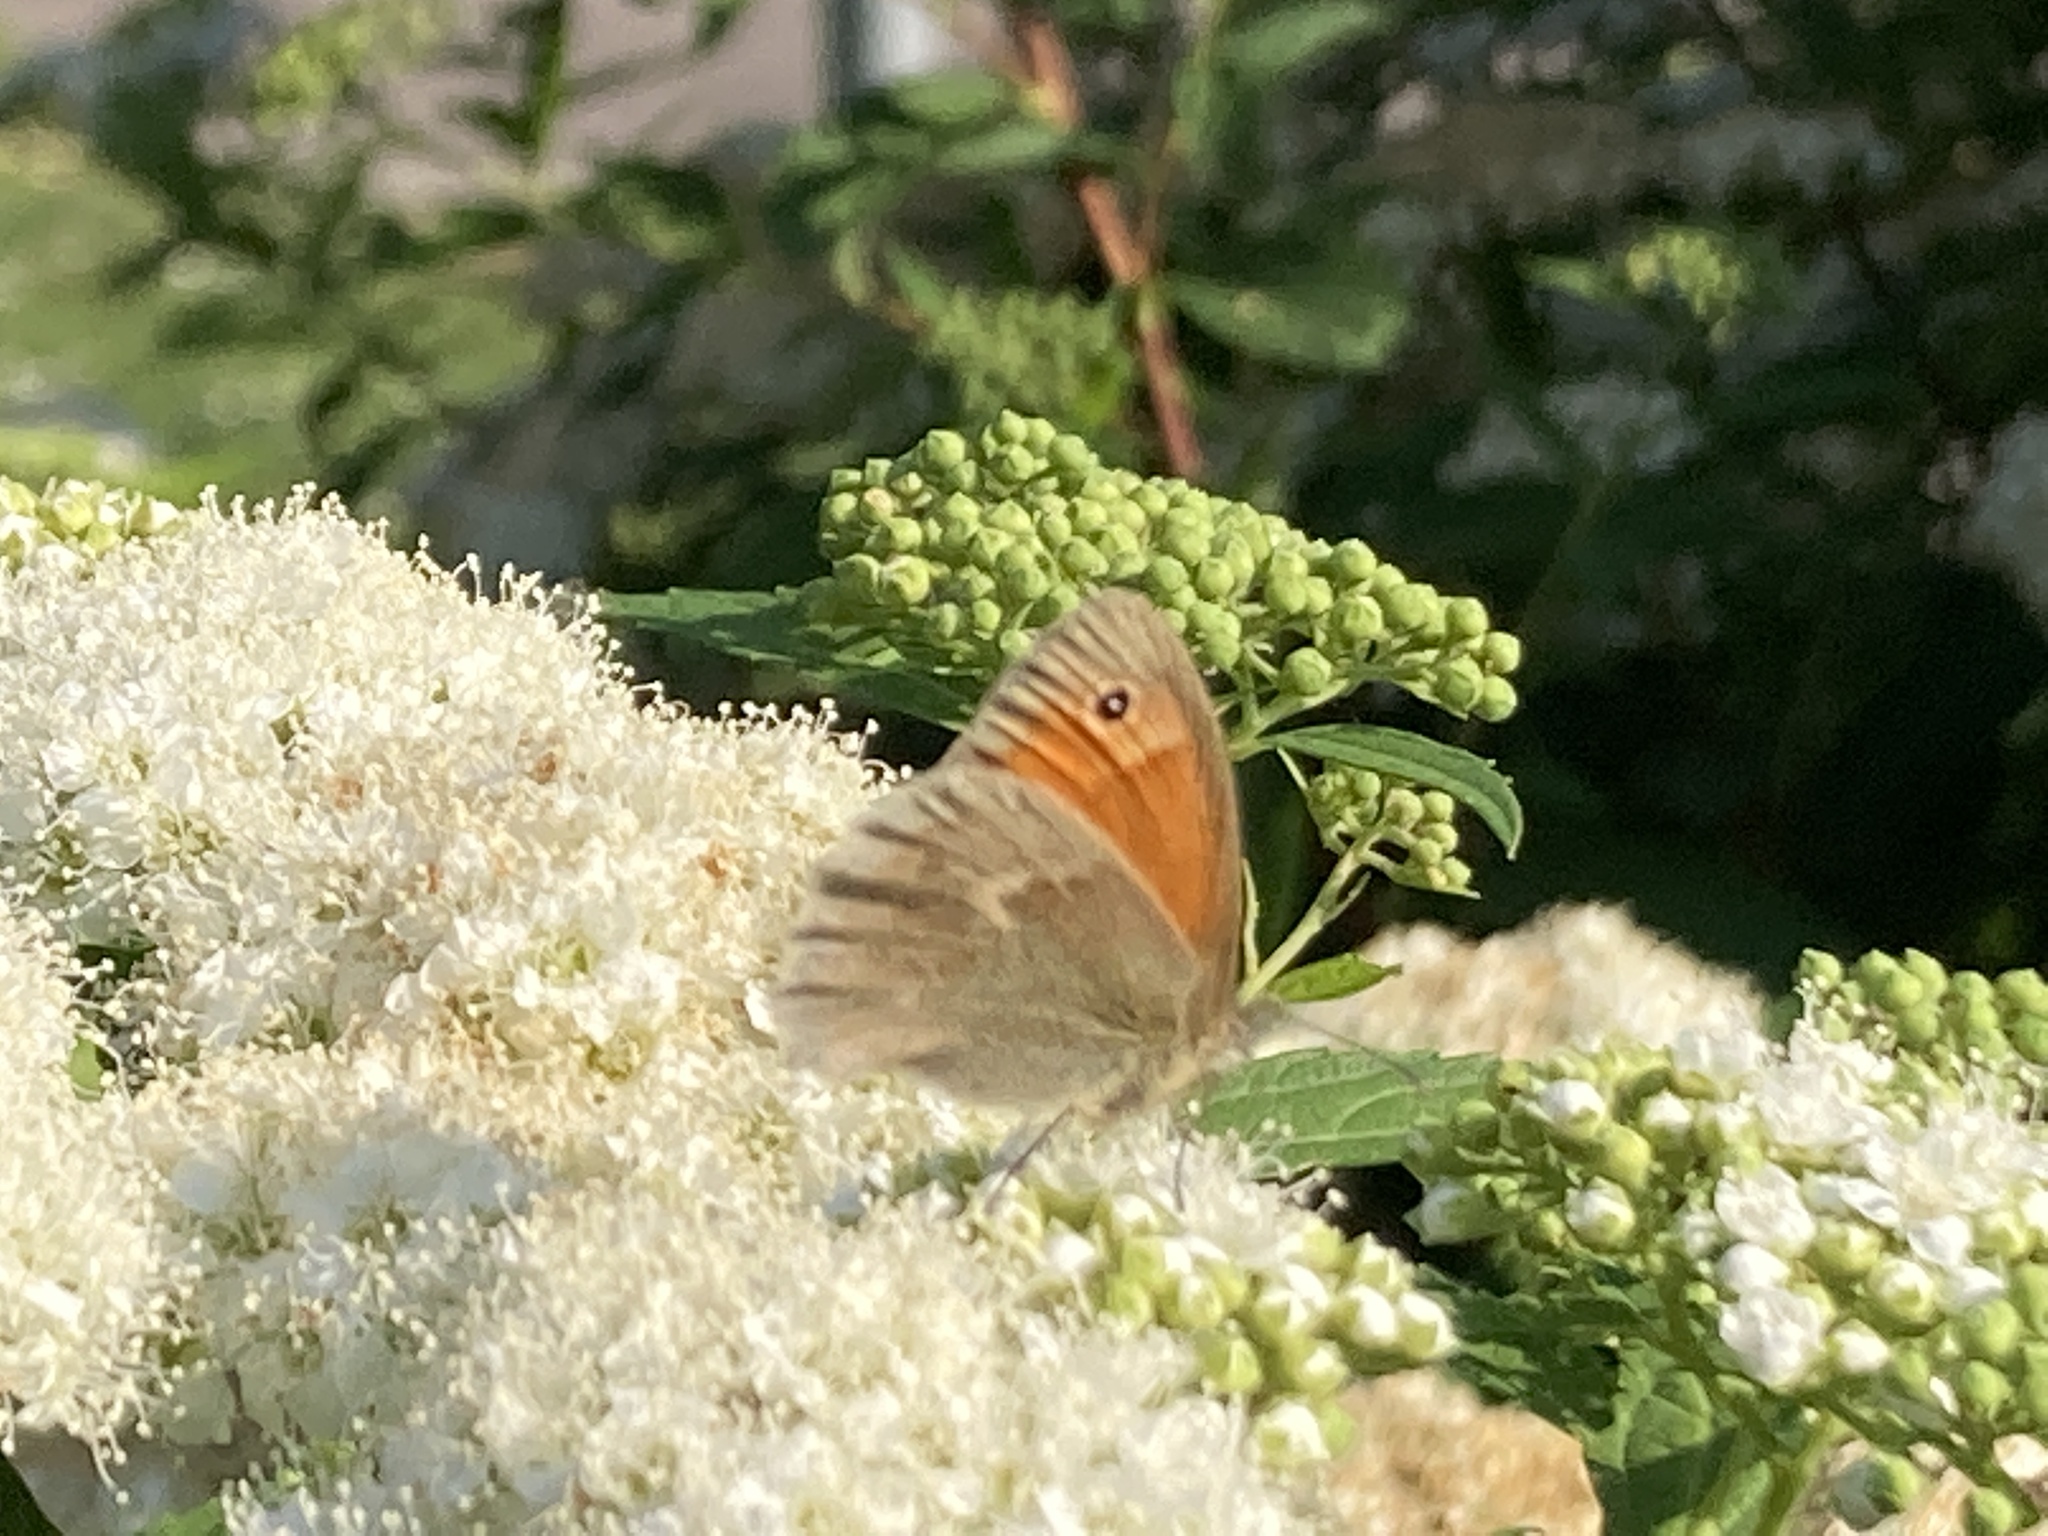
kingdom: Animalia
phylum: Arthropoda
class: Insecta
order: Lepidoptera
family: Nymphalidae
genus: Coenonympha
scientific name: Coenonympha pamphilus
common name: Small heath
